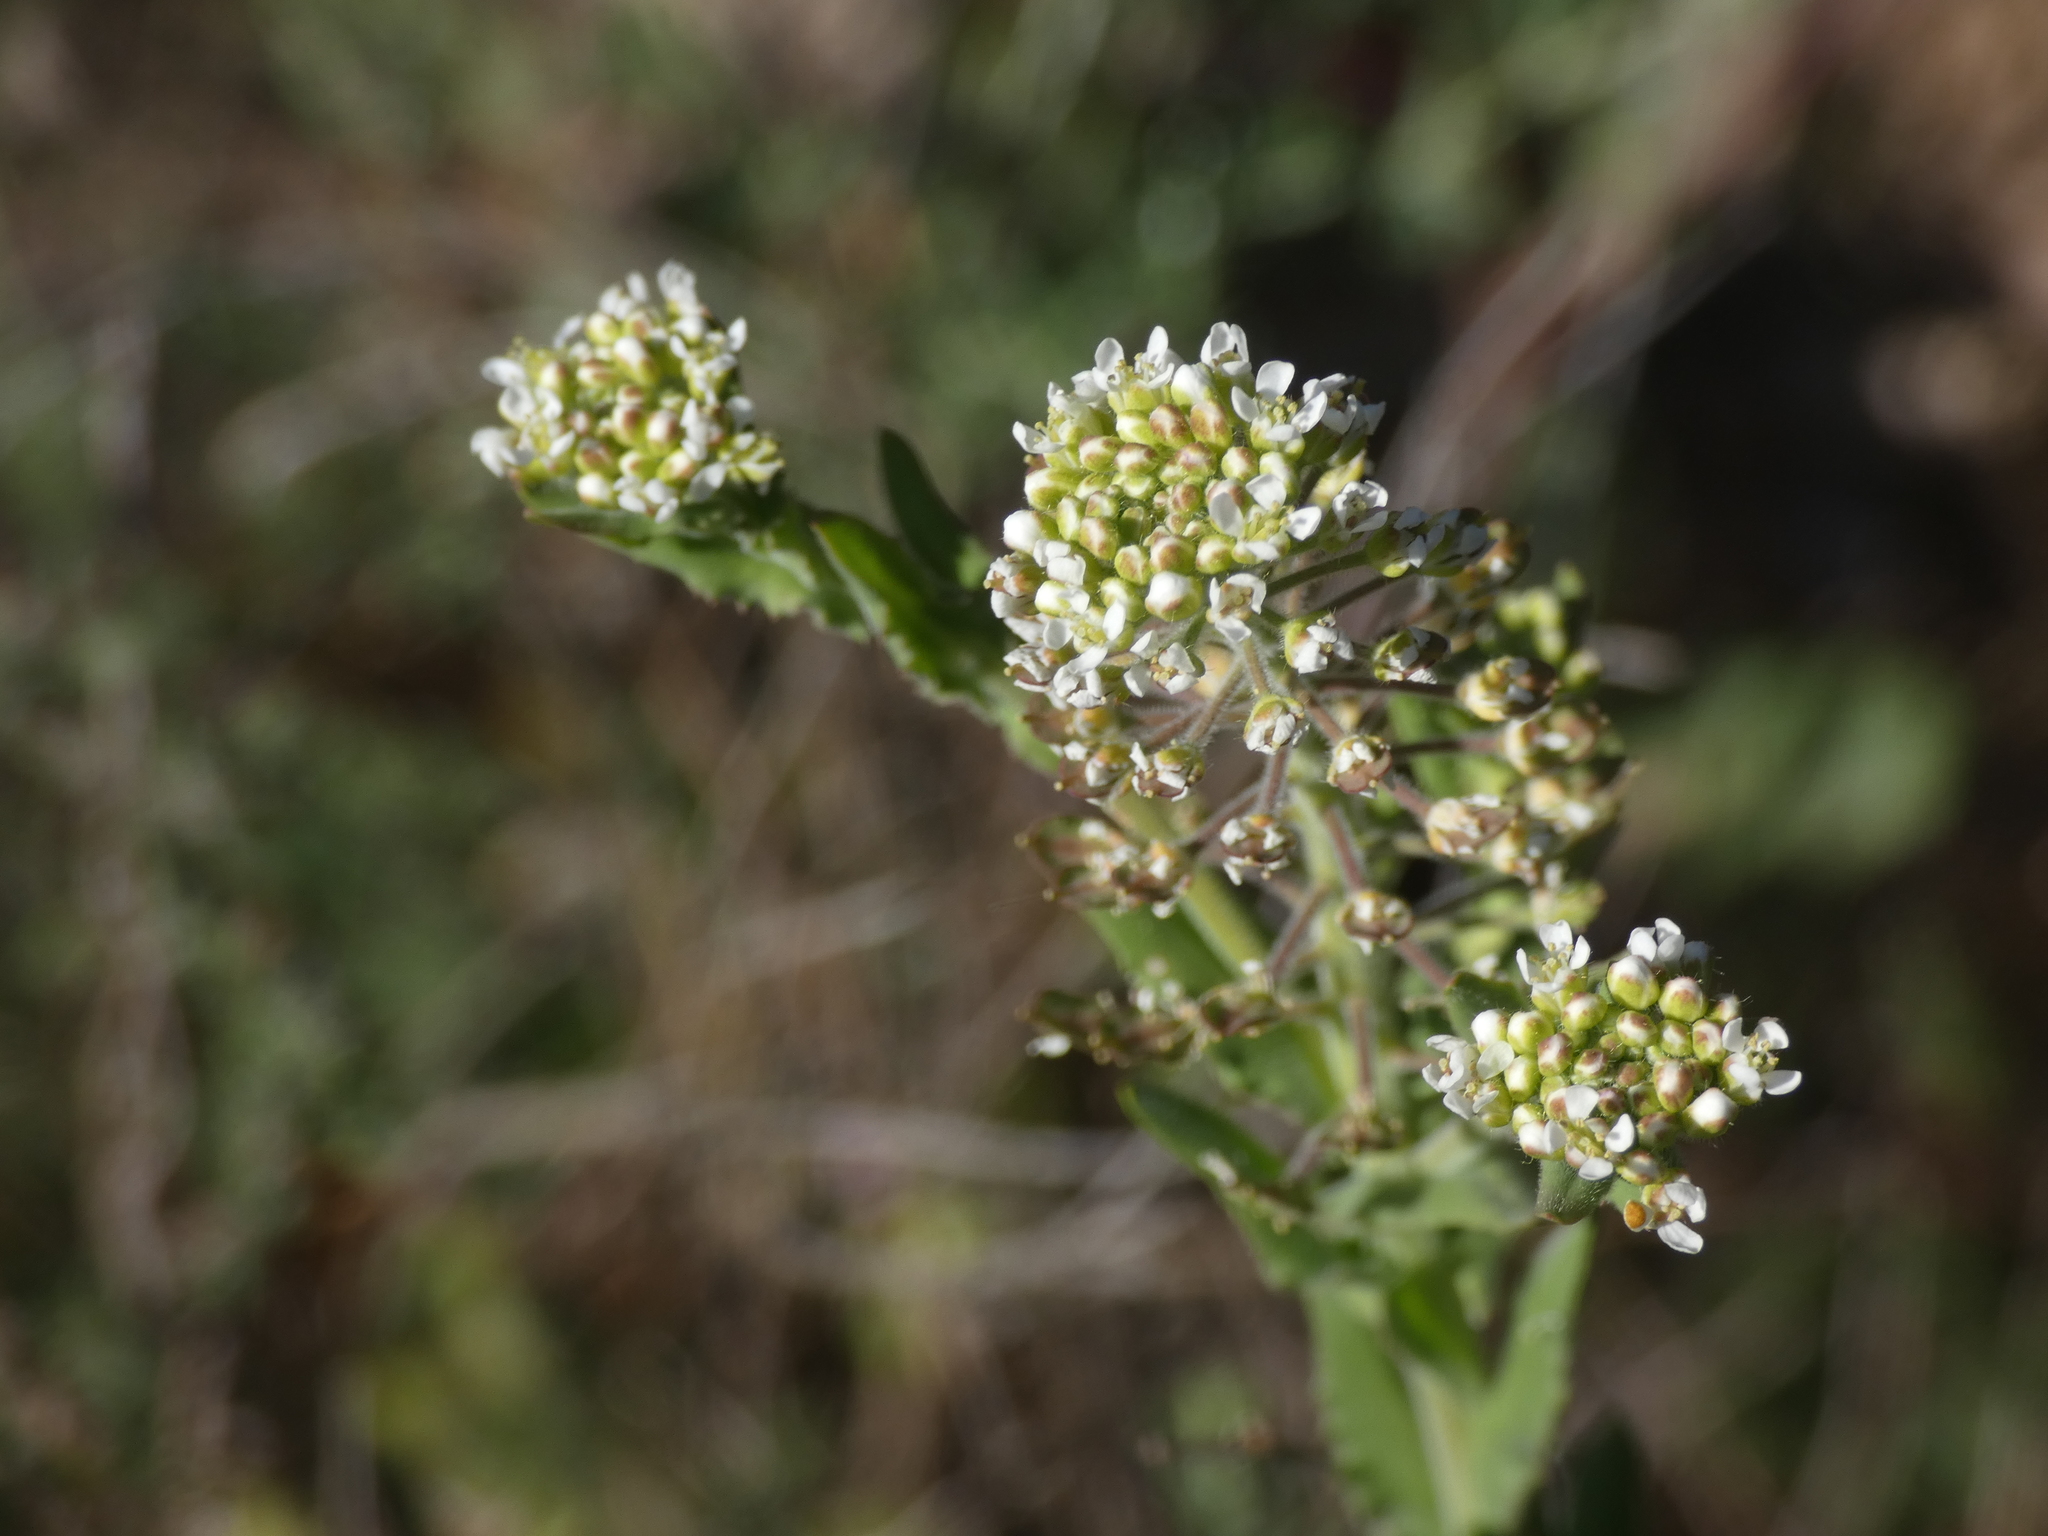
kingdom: Plantae
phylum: Tracheophyta
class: Magnoliopsida
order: Brassicales
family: Brassicaceae
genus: Lepidium
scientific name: Lepidium campestre
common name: Field pepperwort
